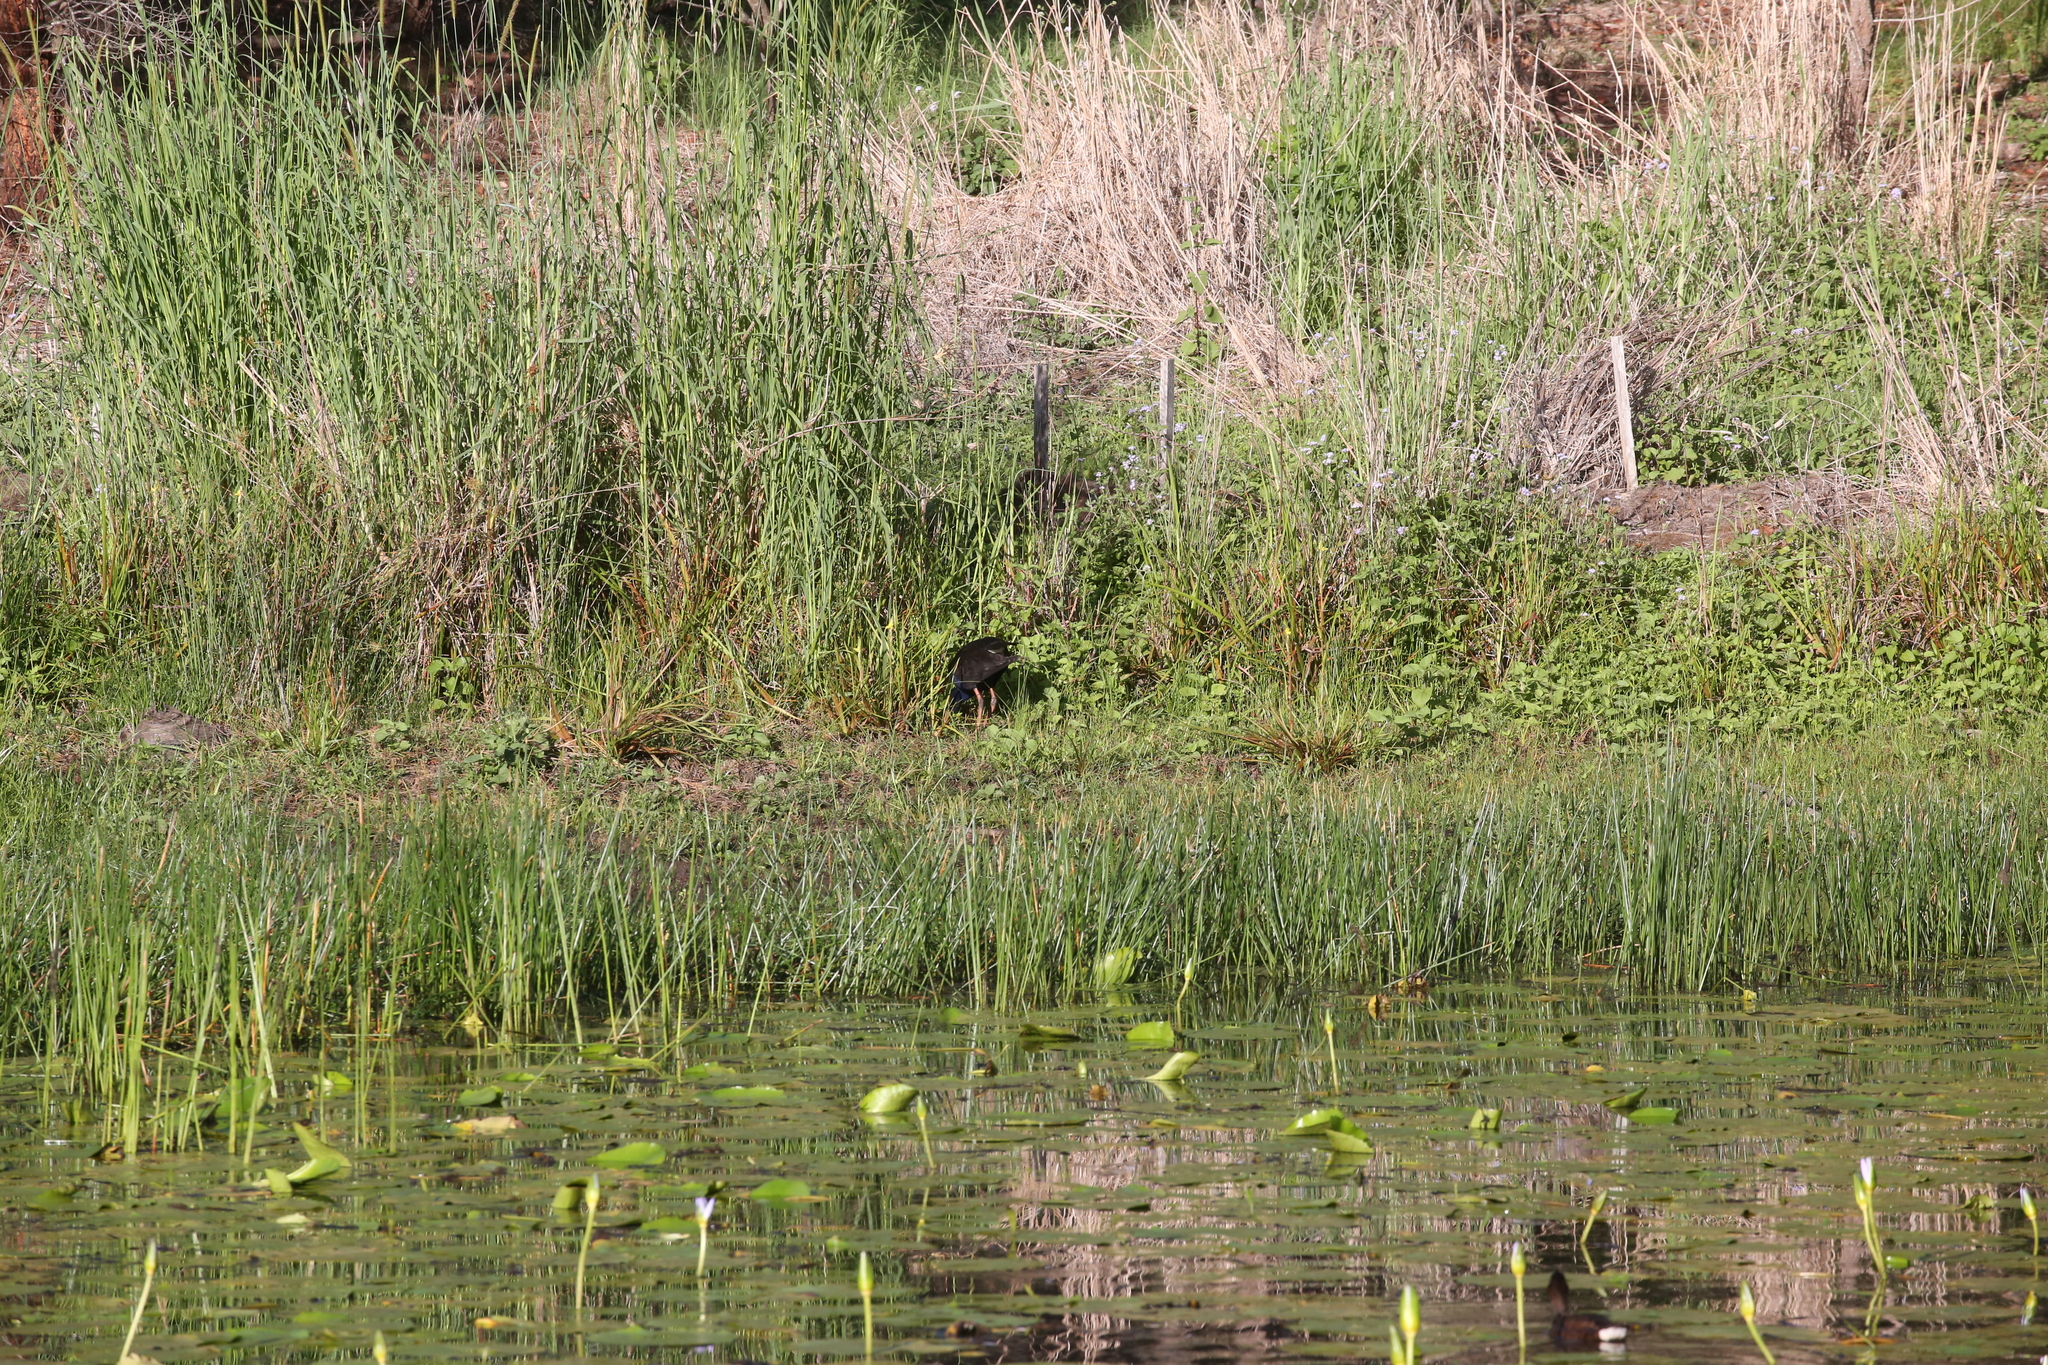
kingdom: Animalia
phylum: Chordata
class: Aves
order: Gruiformes
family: Rallidae
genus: Porphyrio
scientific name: Porphyrio melanotus
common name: Australasian swamphen
